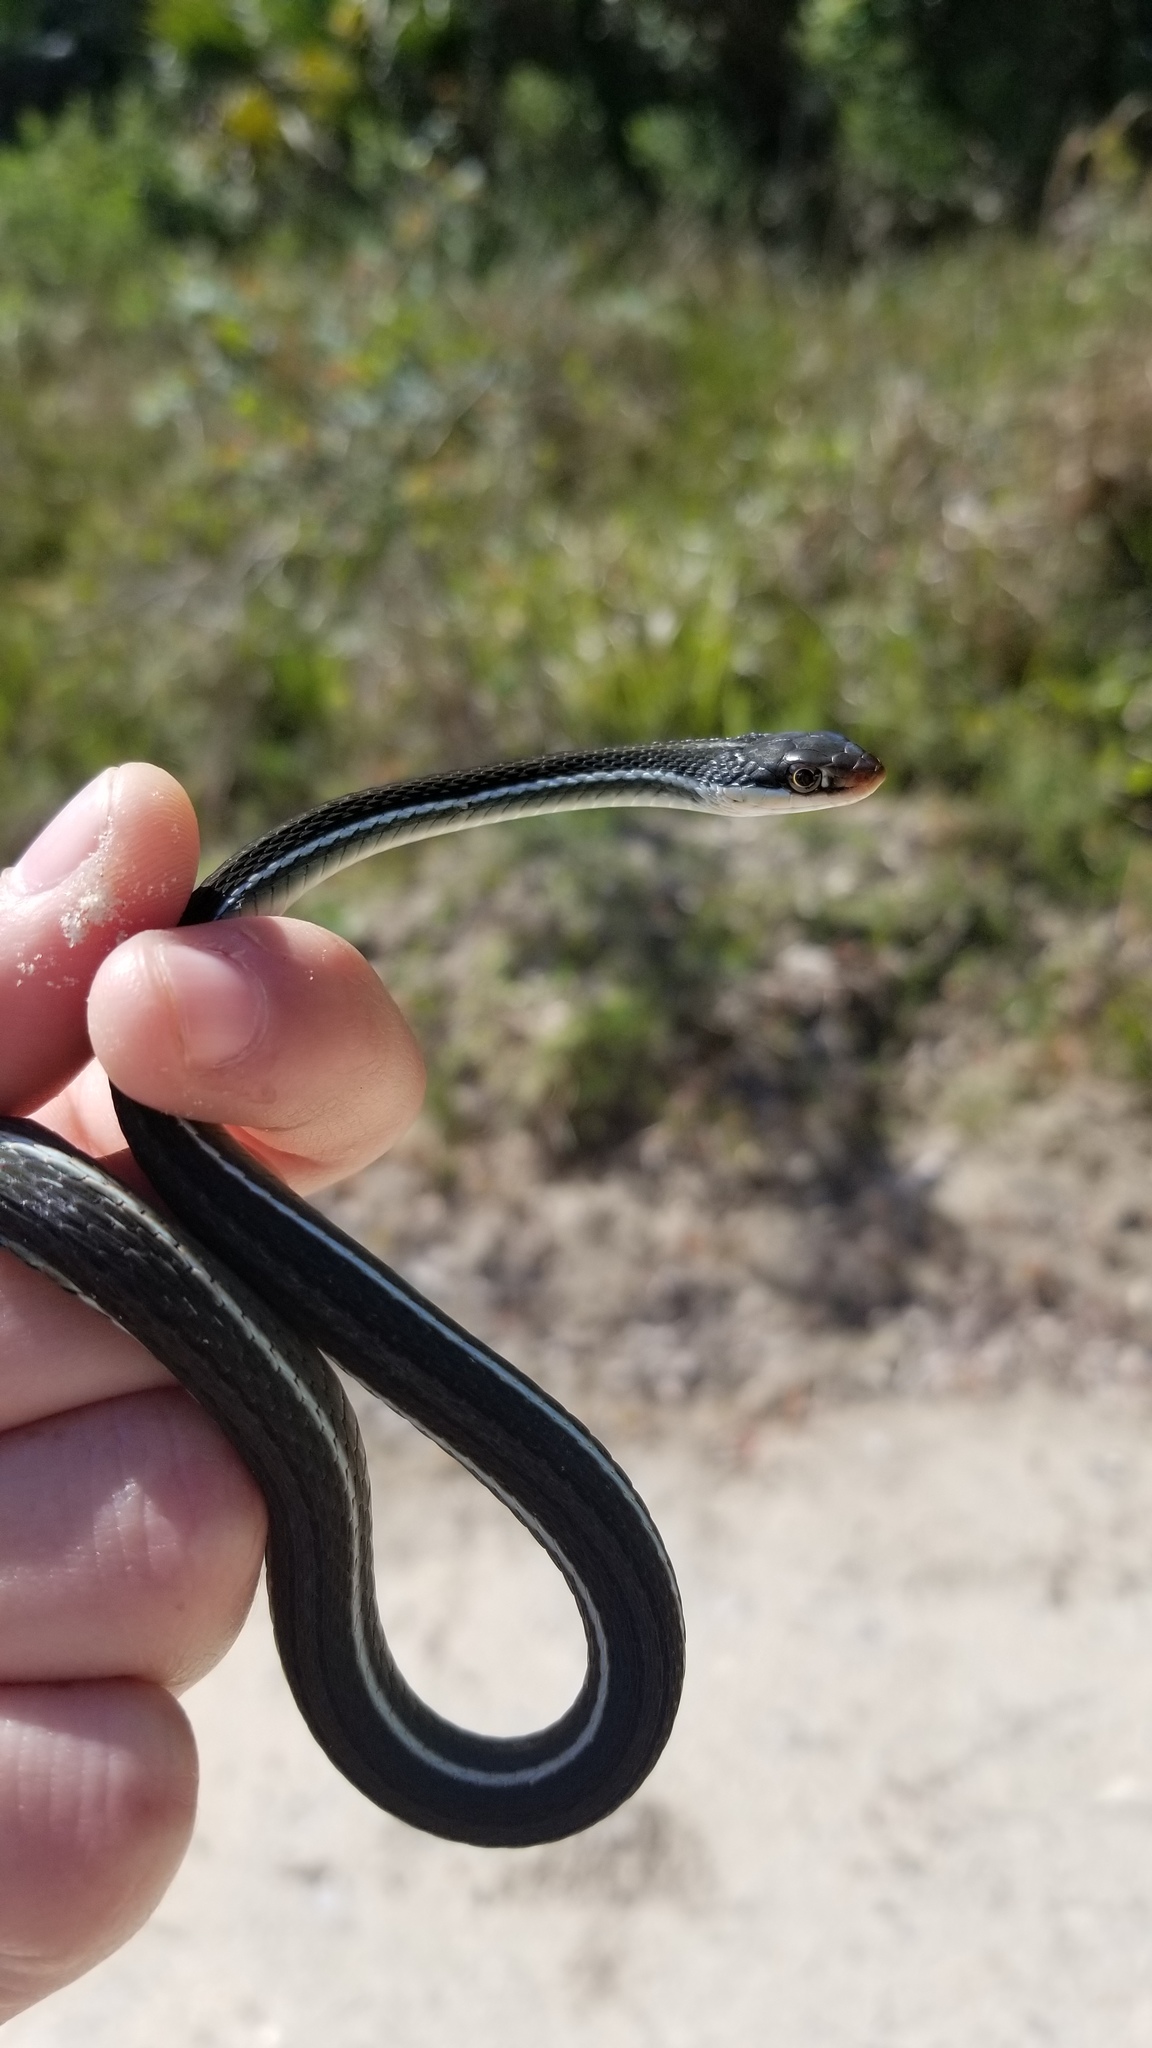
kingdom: Animalia
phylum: Chordata
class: Squamata
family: Colubridae
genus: Thamnophis
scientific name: Thamnophis saurita
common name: Eastern ribbonsnake
